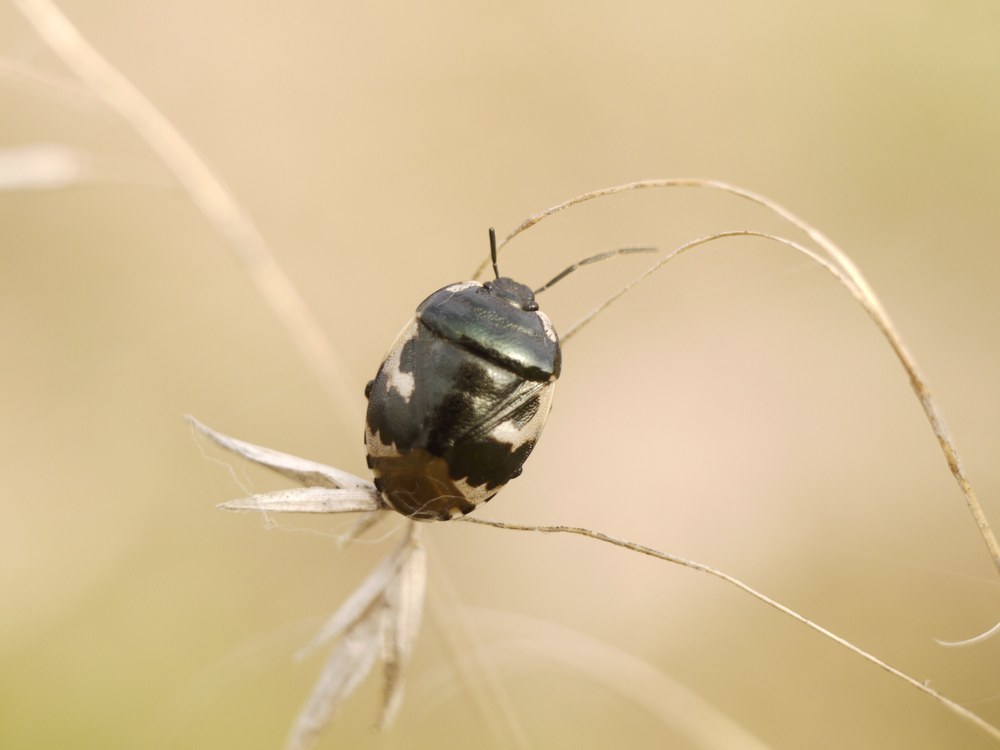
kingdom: Animalia
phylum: Arthropoda
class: Insecta
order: Hemiptera
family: Cydnidae
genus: Tritomegas
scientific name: Tritomegas bicolor
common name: Pied shieldbug
